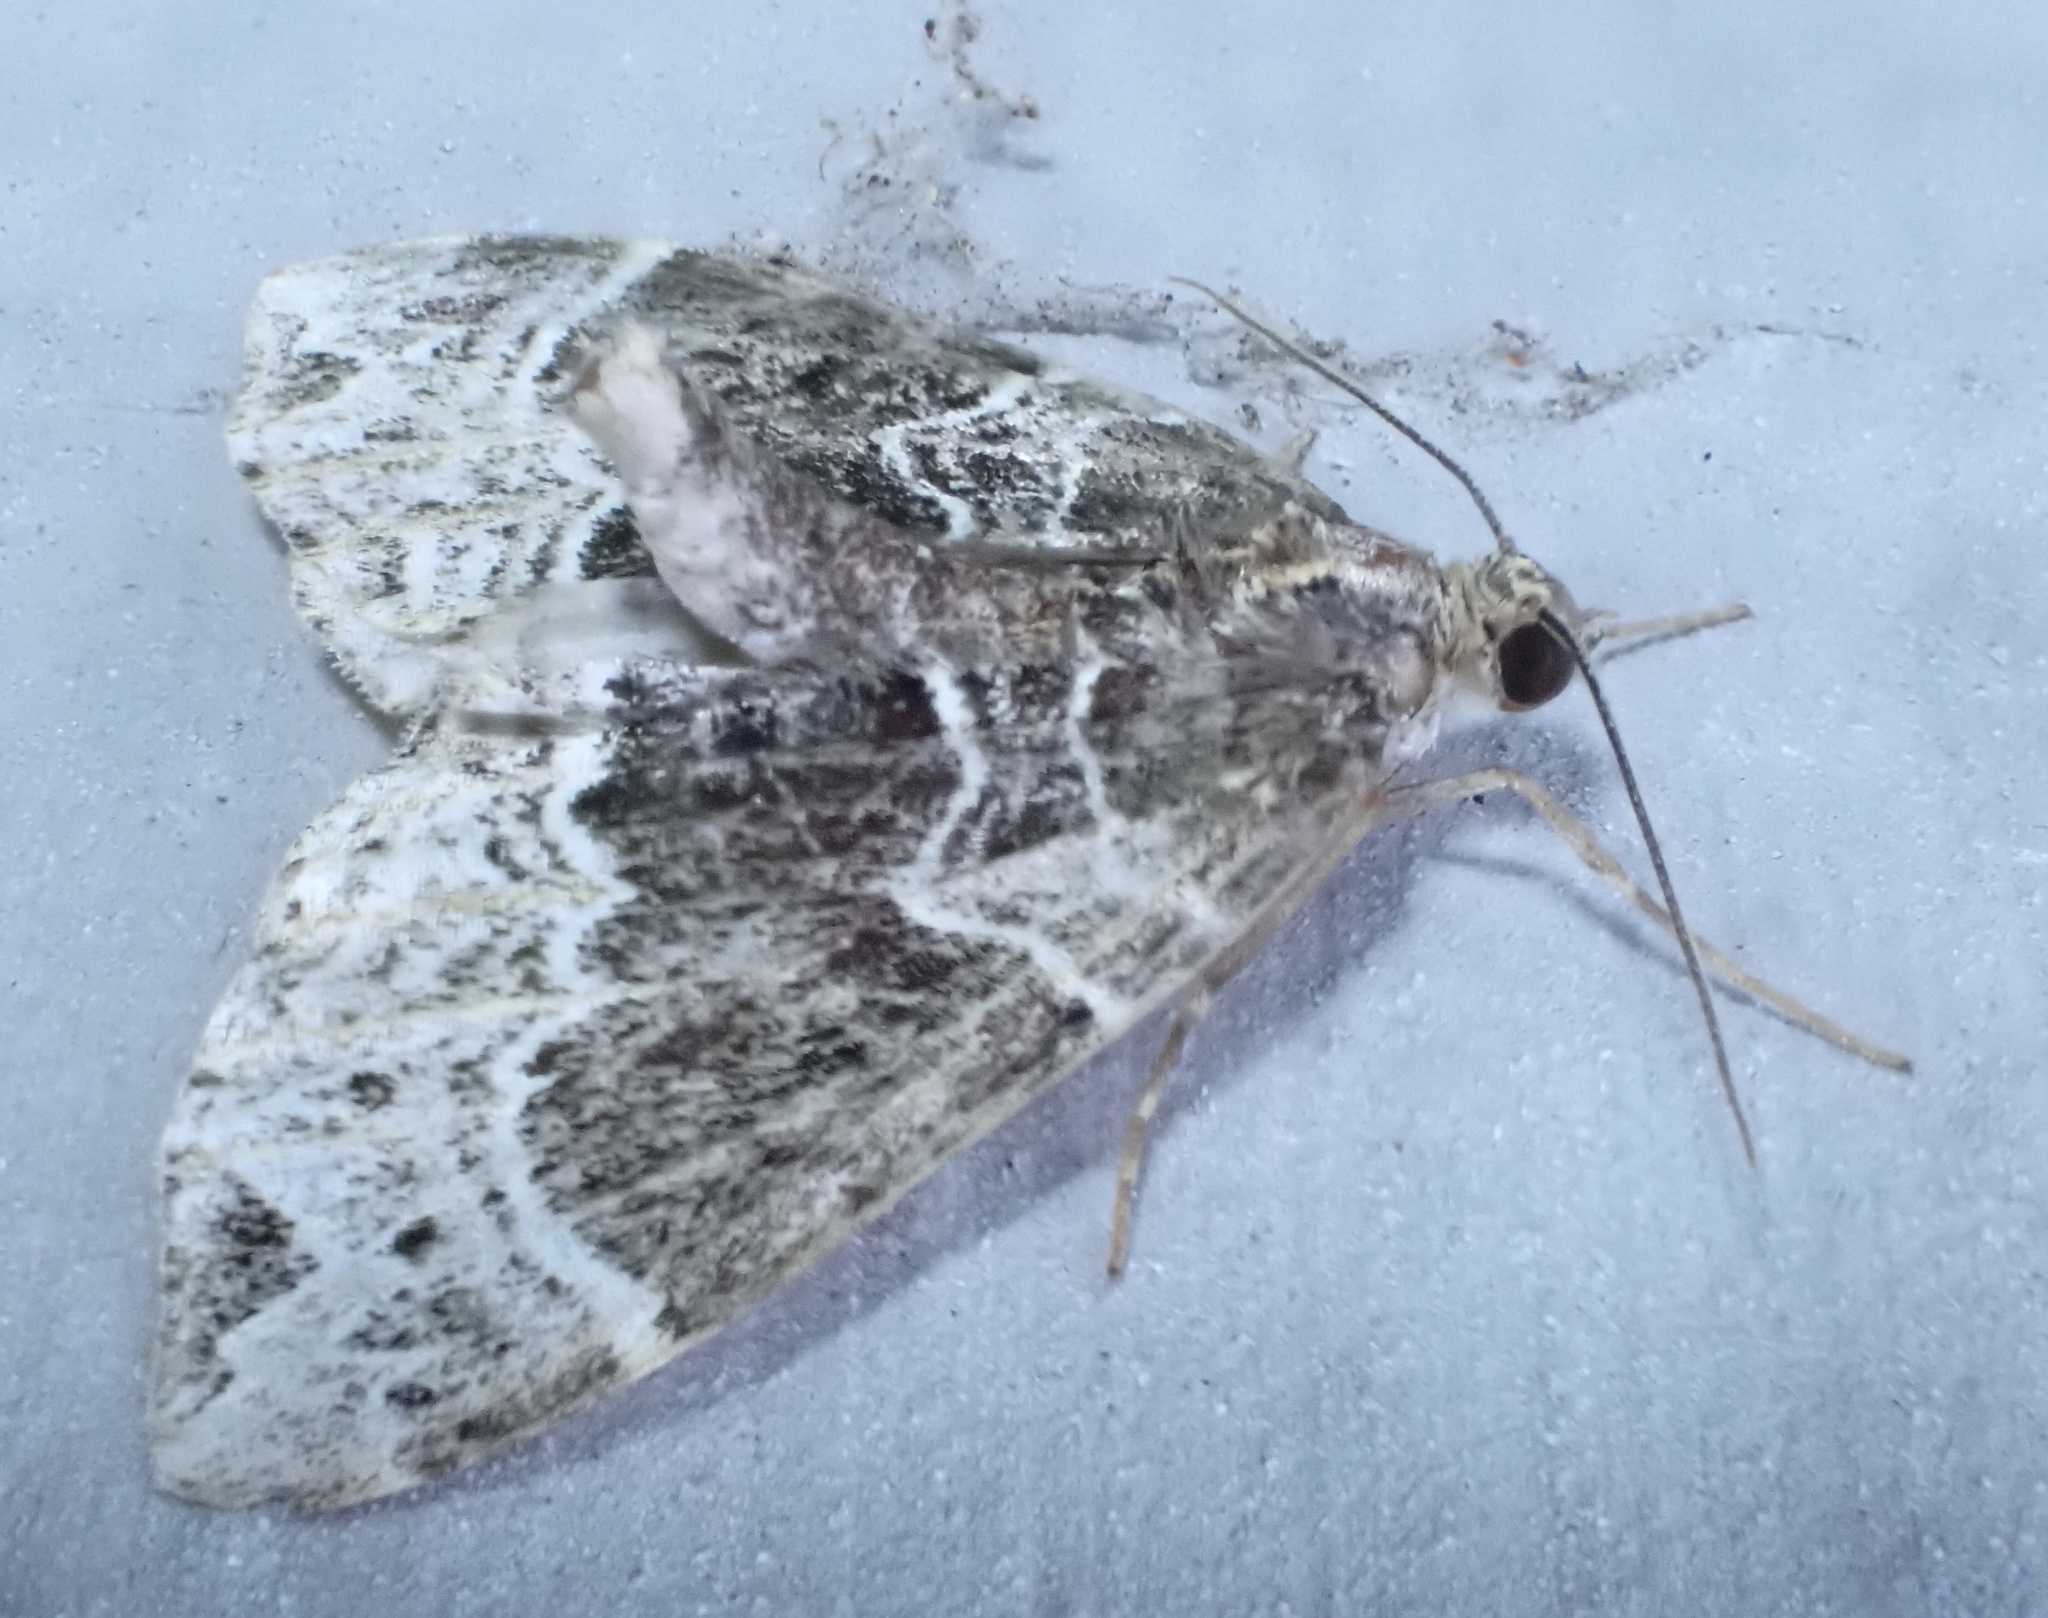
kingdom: Animalia
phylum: Arthropoda
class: Insecta
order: Lepidoptera
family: Geometridae
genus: Ecliptopera
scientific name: Ecliptopera silaceata
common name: Small phoenix
